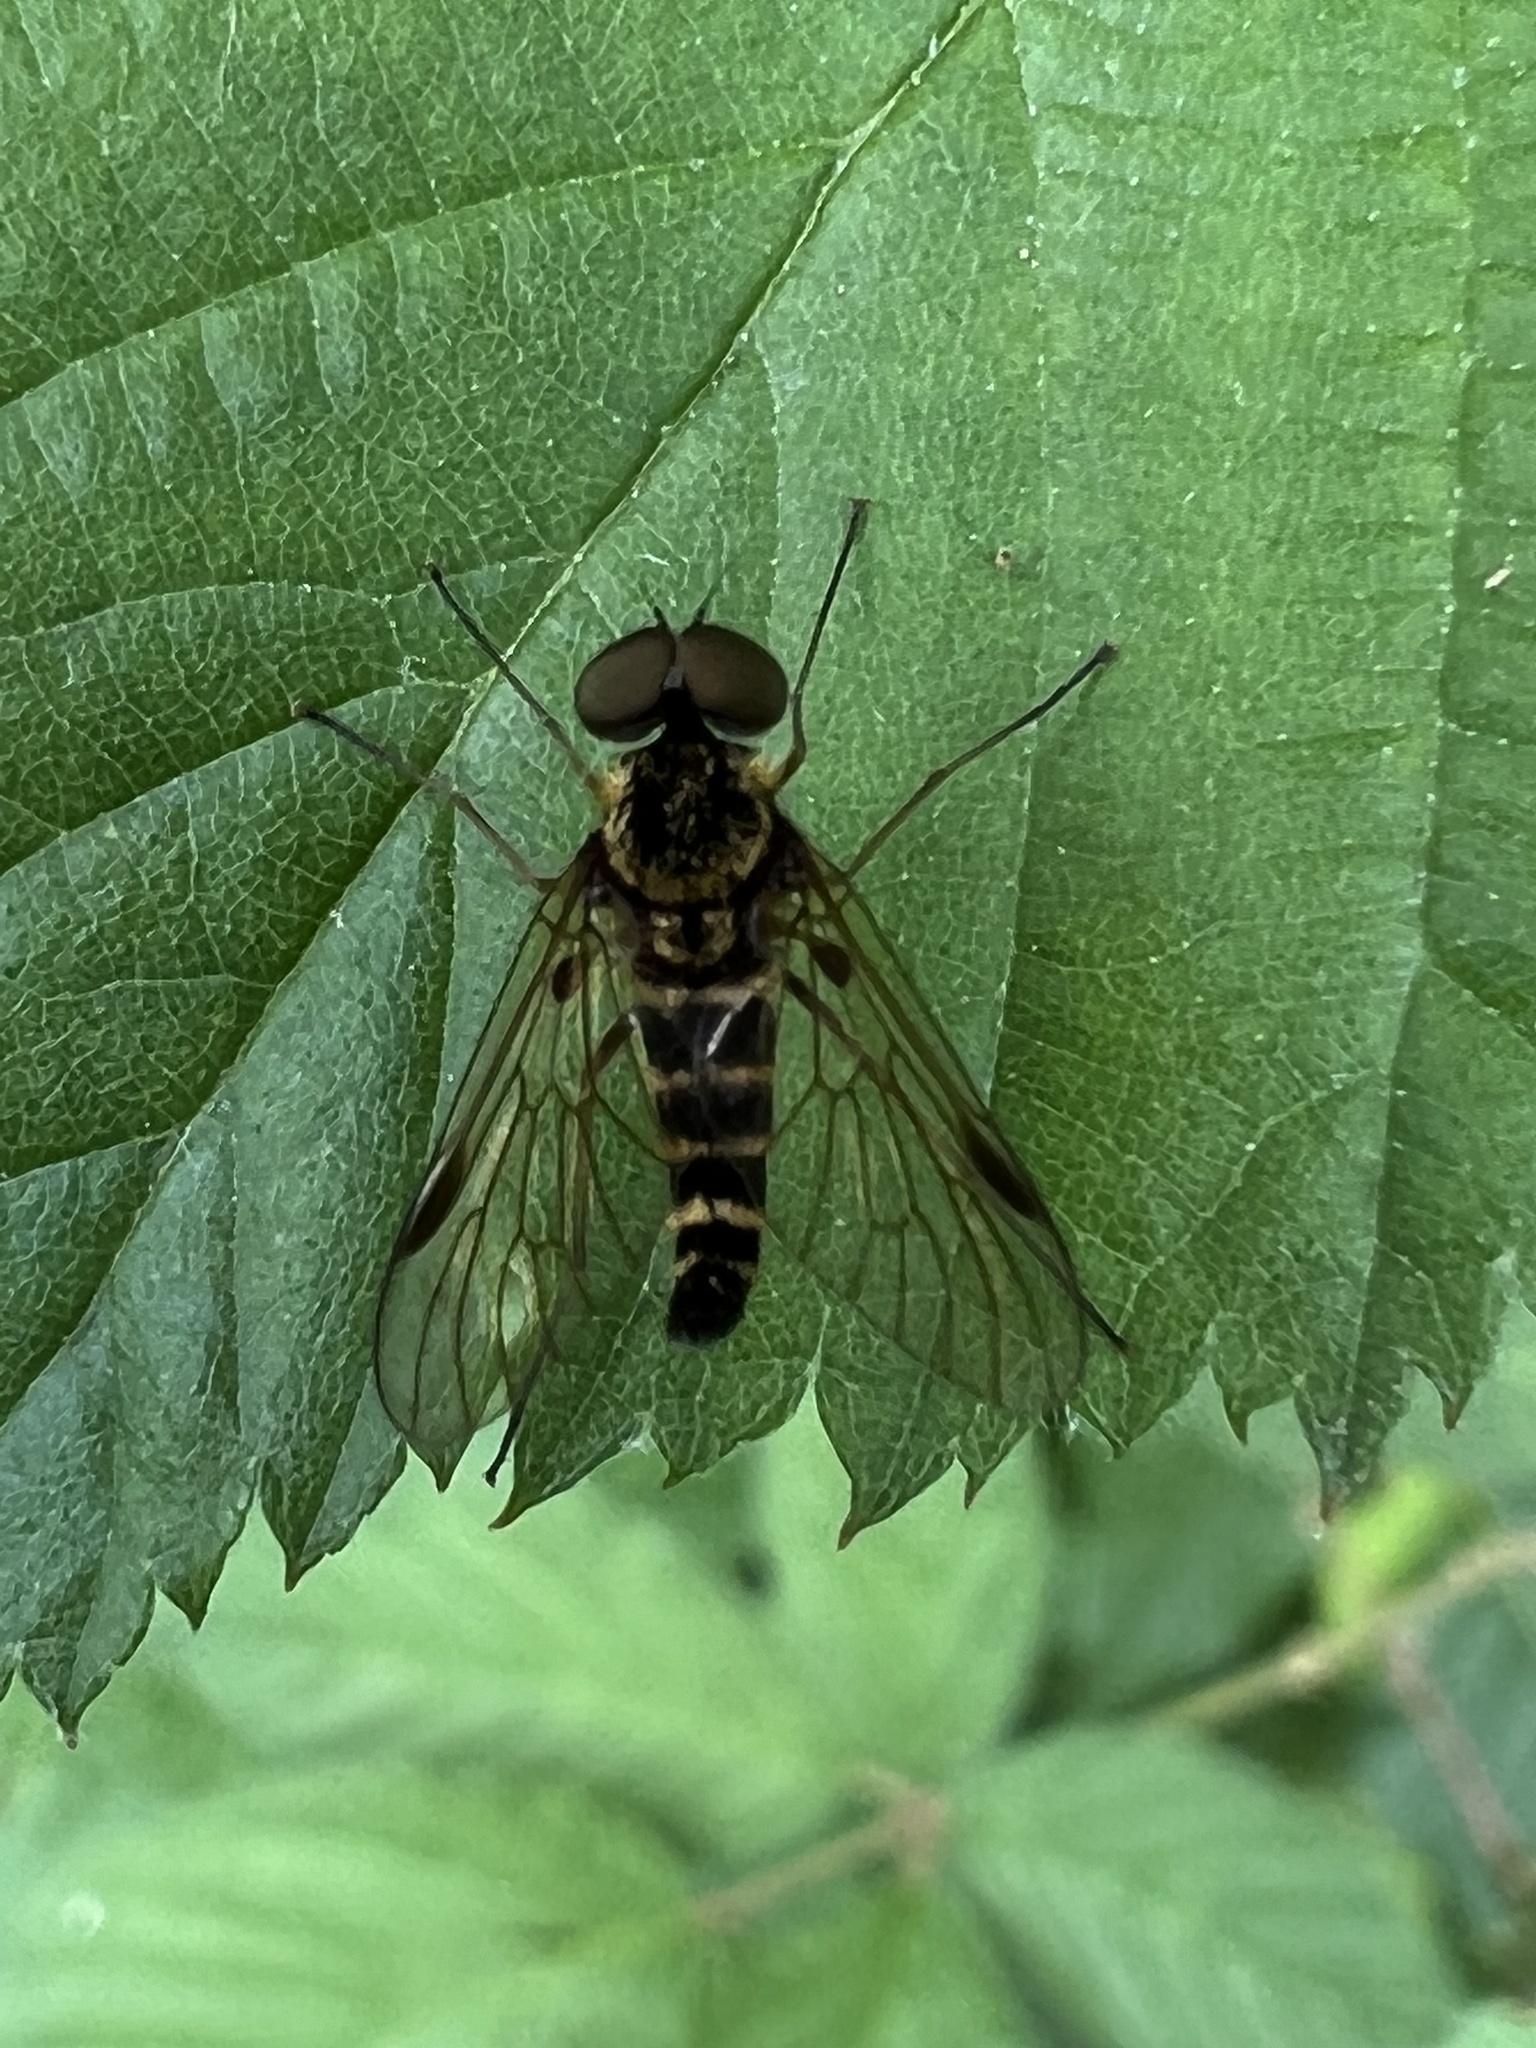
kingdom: Animalia
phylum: Arthropoda
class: Insecta
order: Diptera
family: Rhagionidae
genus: Chrysopilus
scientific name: Chrysopilus fasciatus
